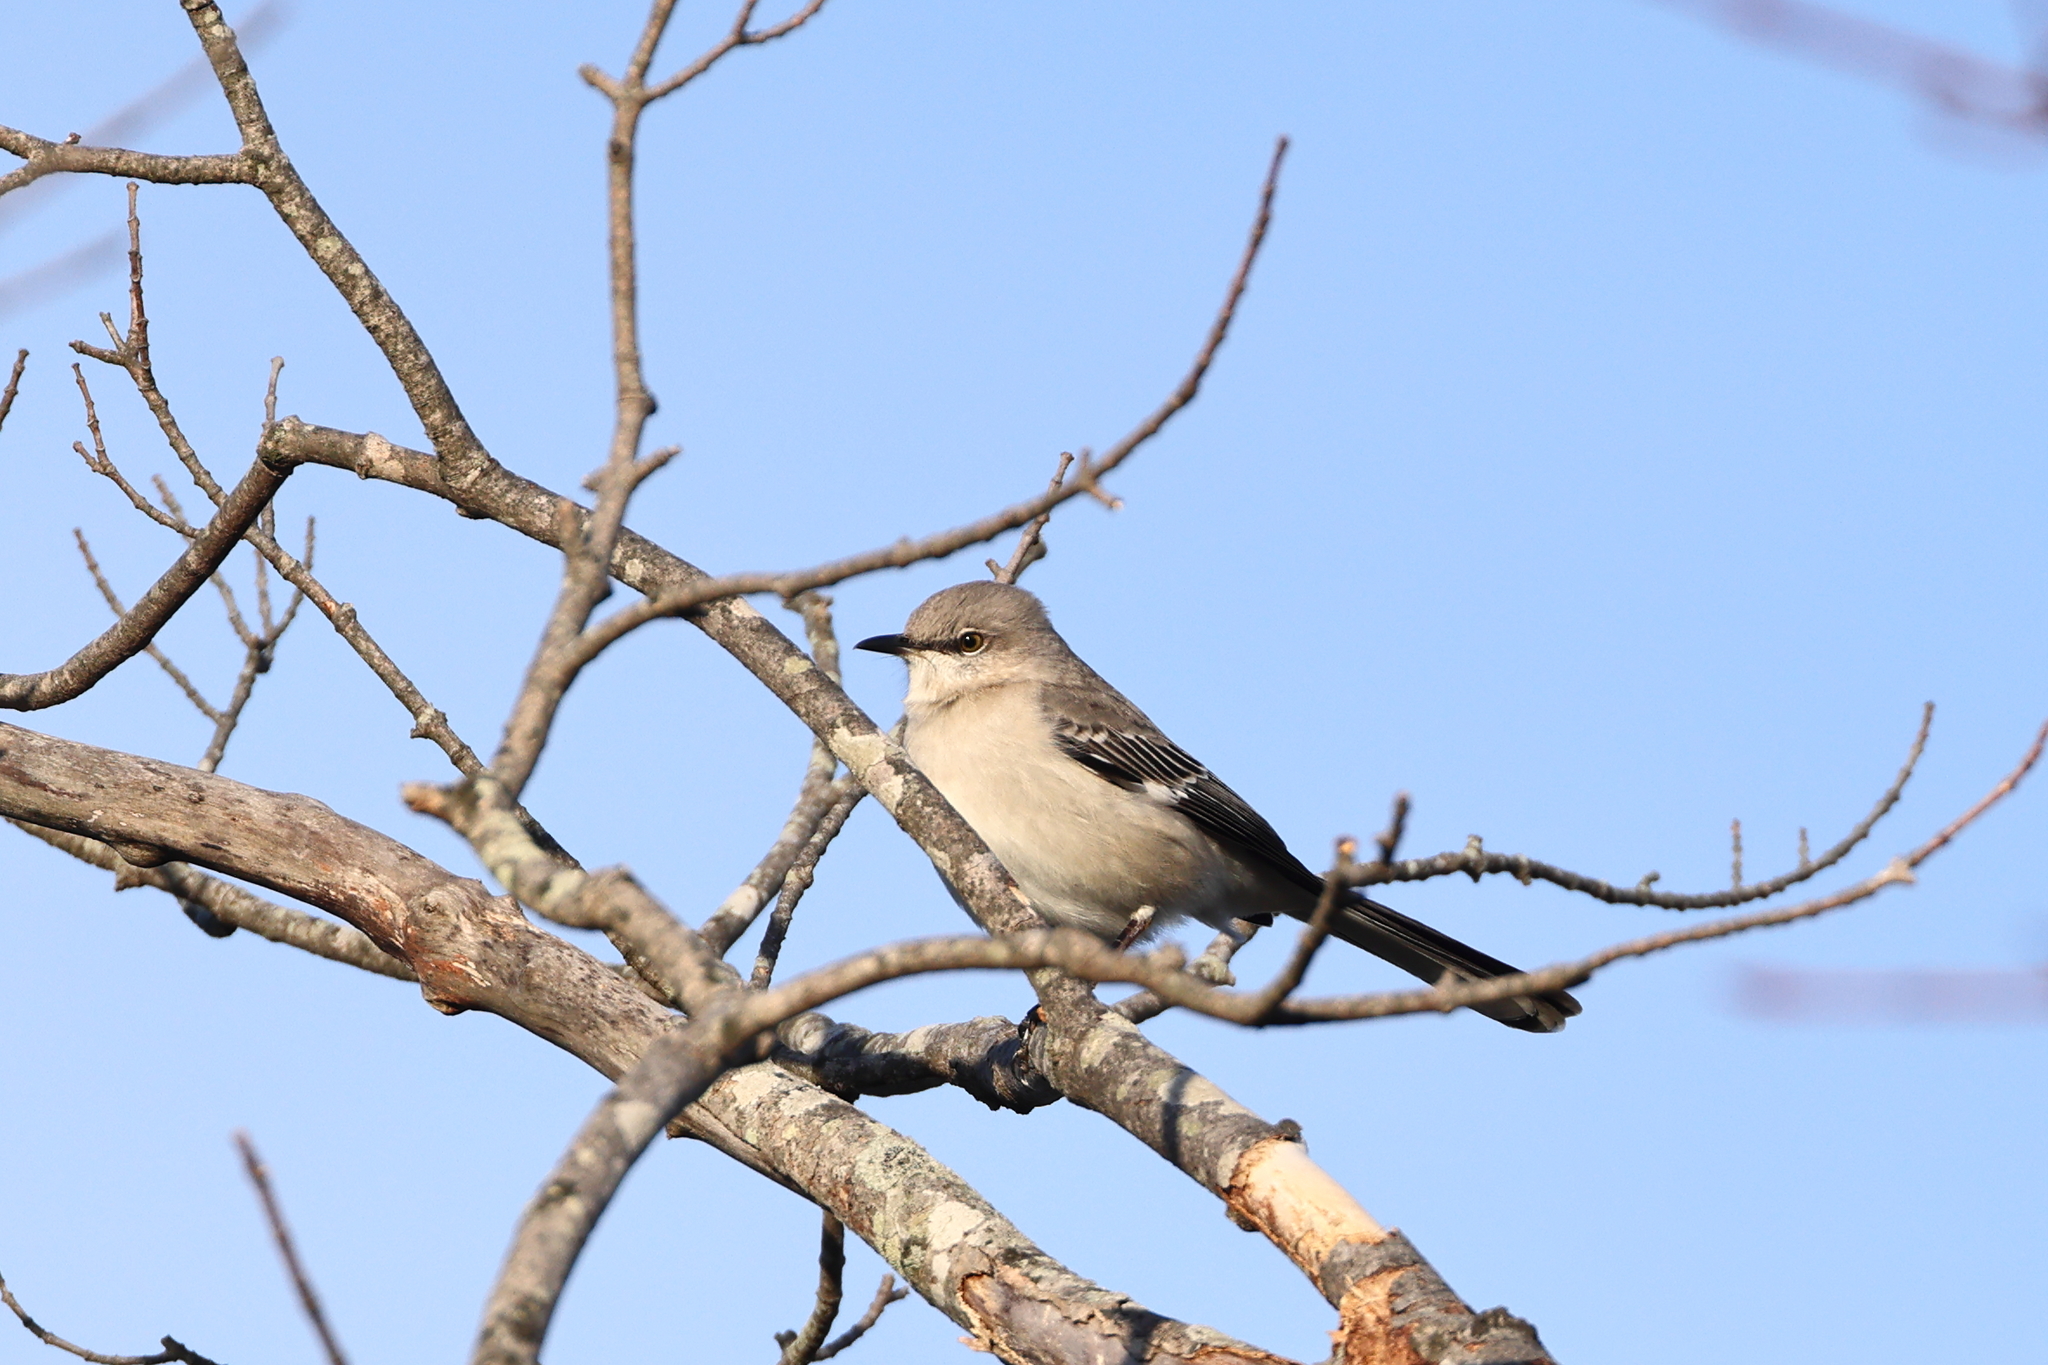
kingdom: Animalia
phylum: Chordata
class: Aves
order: Passeriformes
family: Mimidae
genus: Mimus
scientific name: Mimus polyglottos
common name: Northern mockingbird
